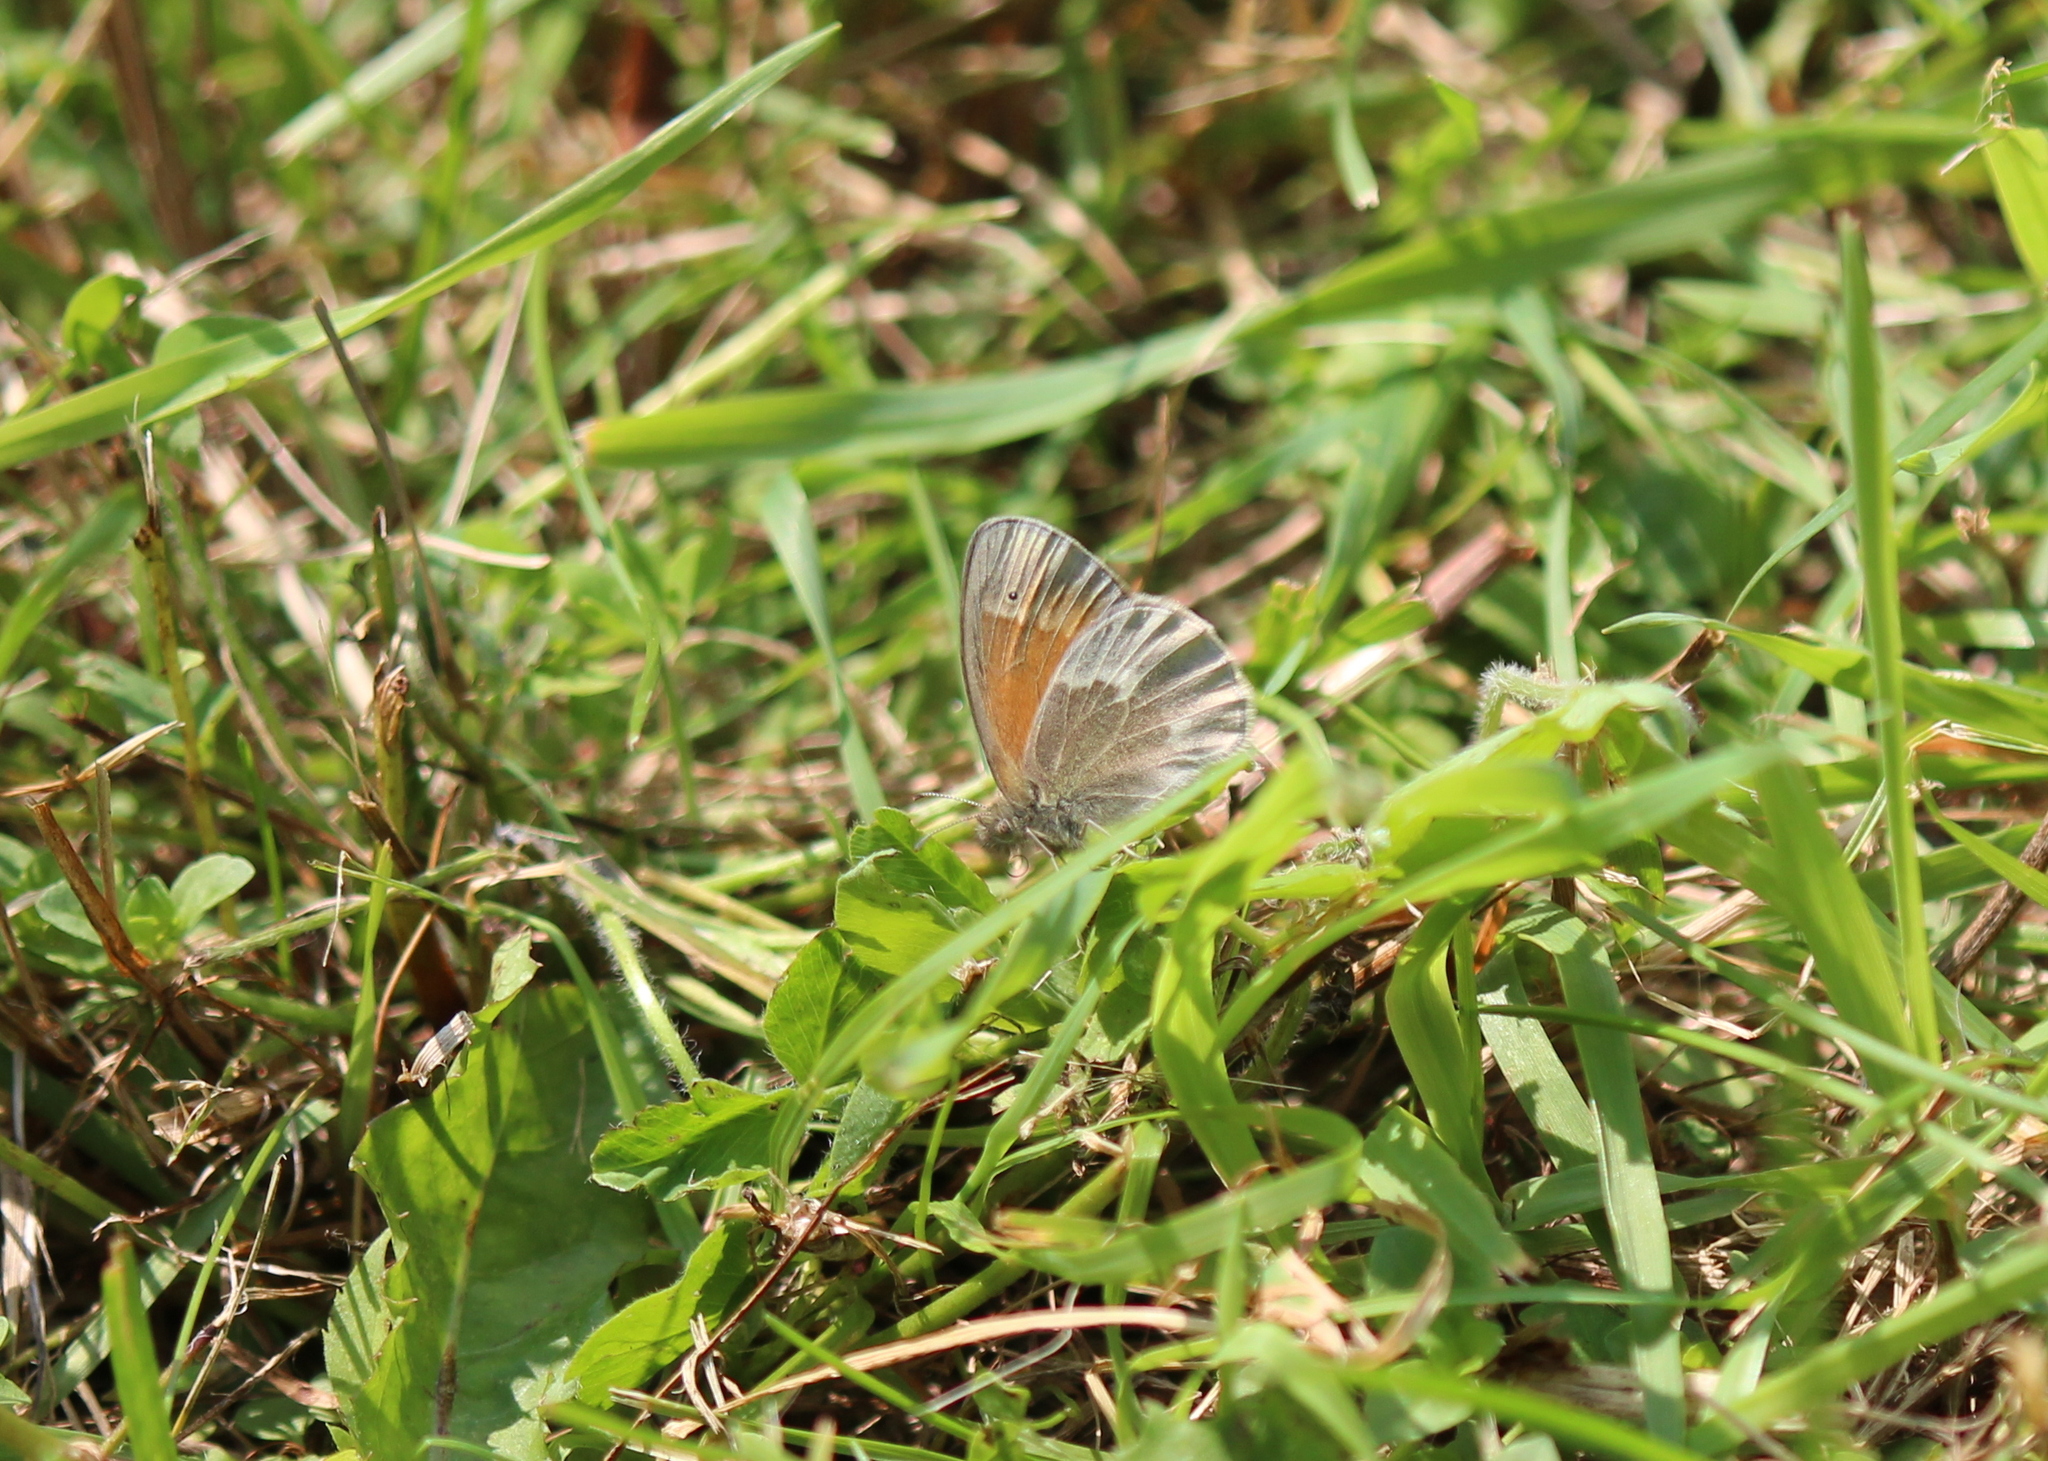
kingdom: Animalia
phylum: Arthropoda
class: Insecta
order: Lepidoptera
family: Nymphalidae
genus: Coenonympha
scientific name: Coenonympha california
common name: Common ringlet
